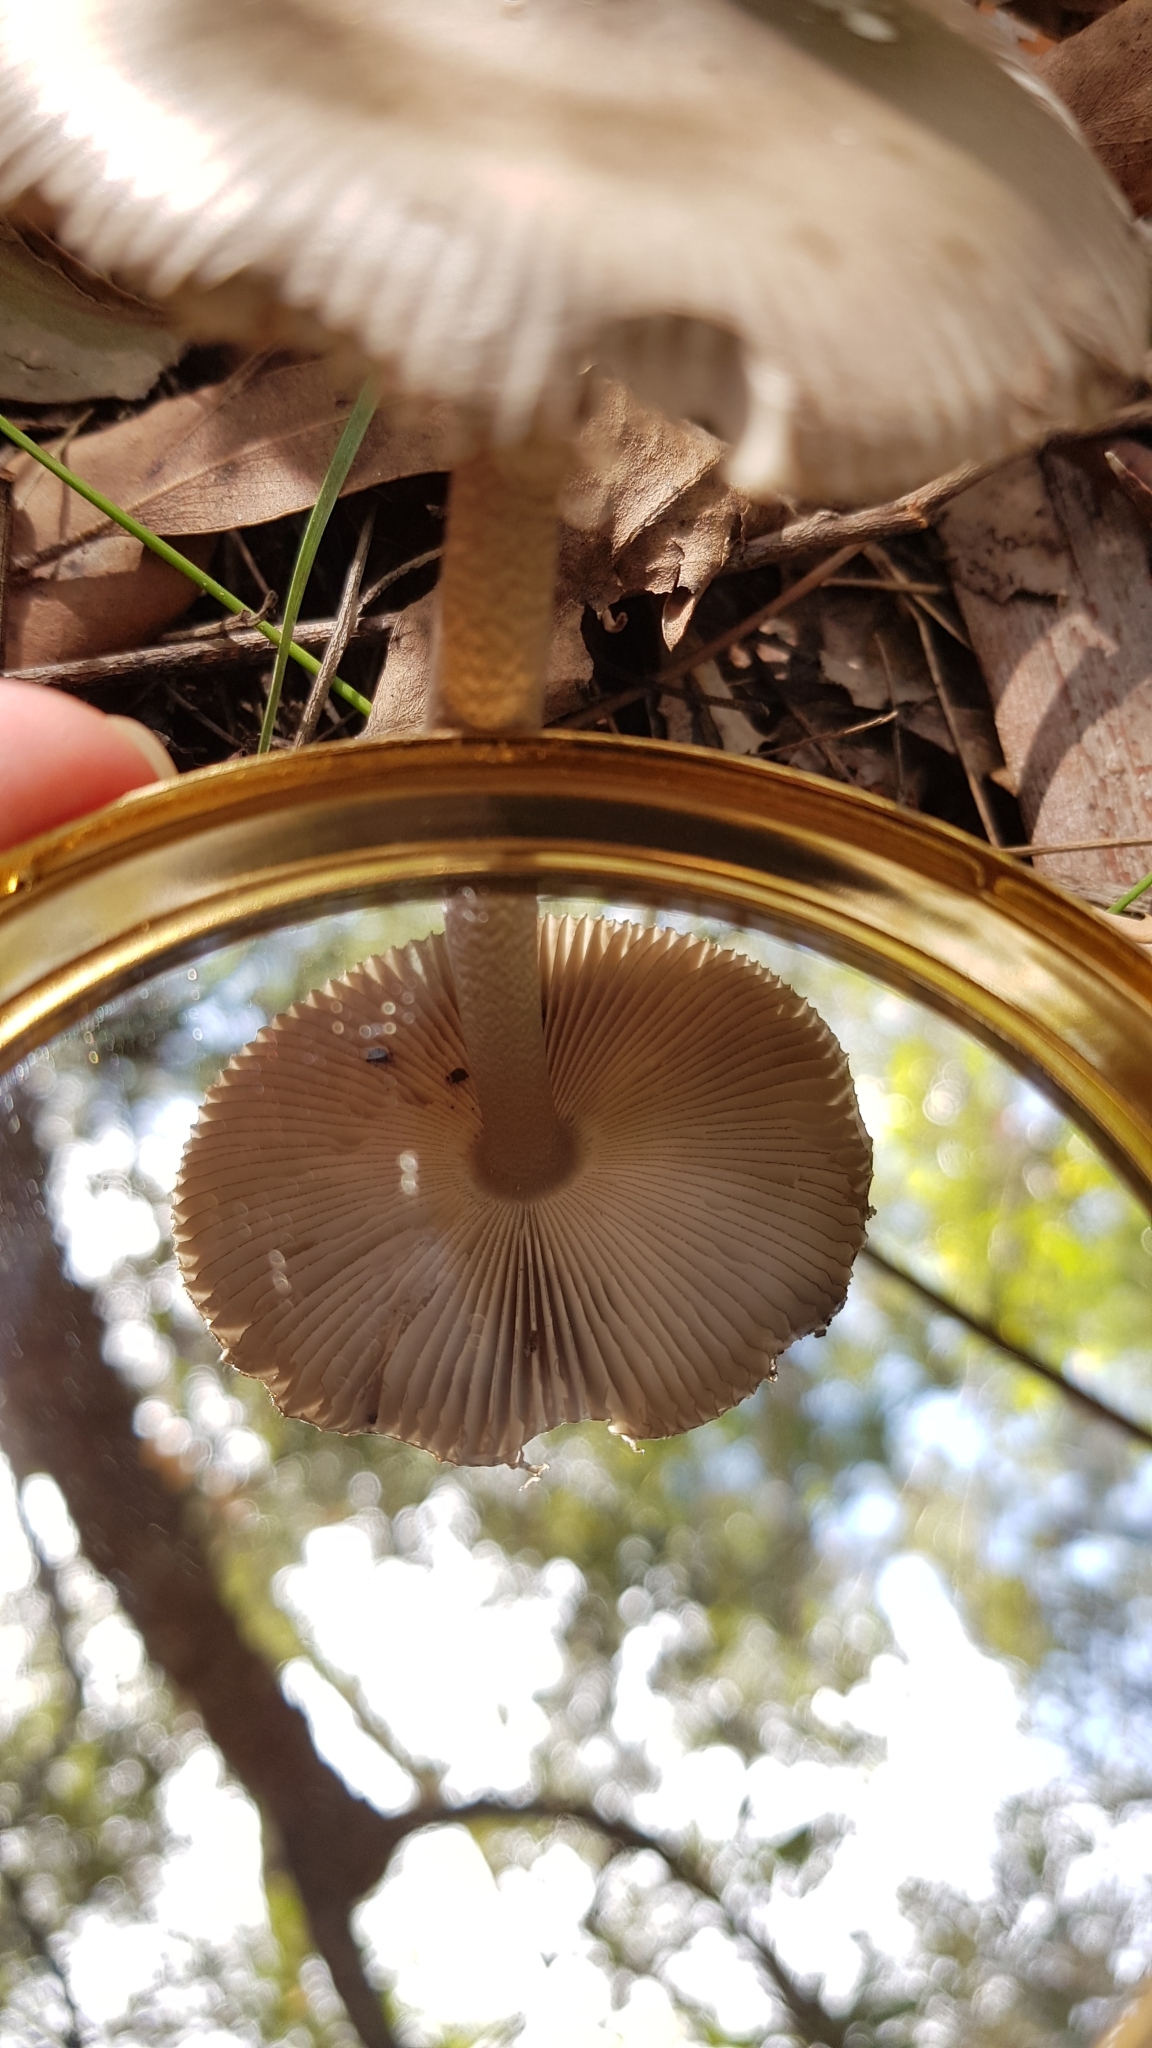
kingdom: Fungi
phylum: Basidiomycota
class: Agaricomycetes
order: Agaricales
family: Amanitaceae
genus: Amanita
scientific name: Amanita cheelii
